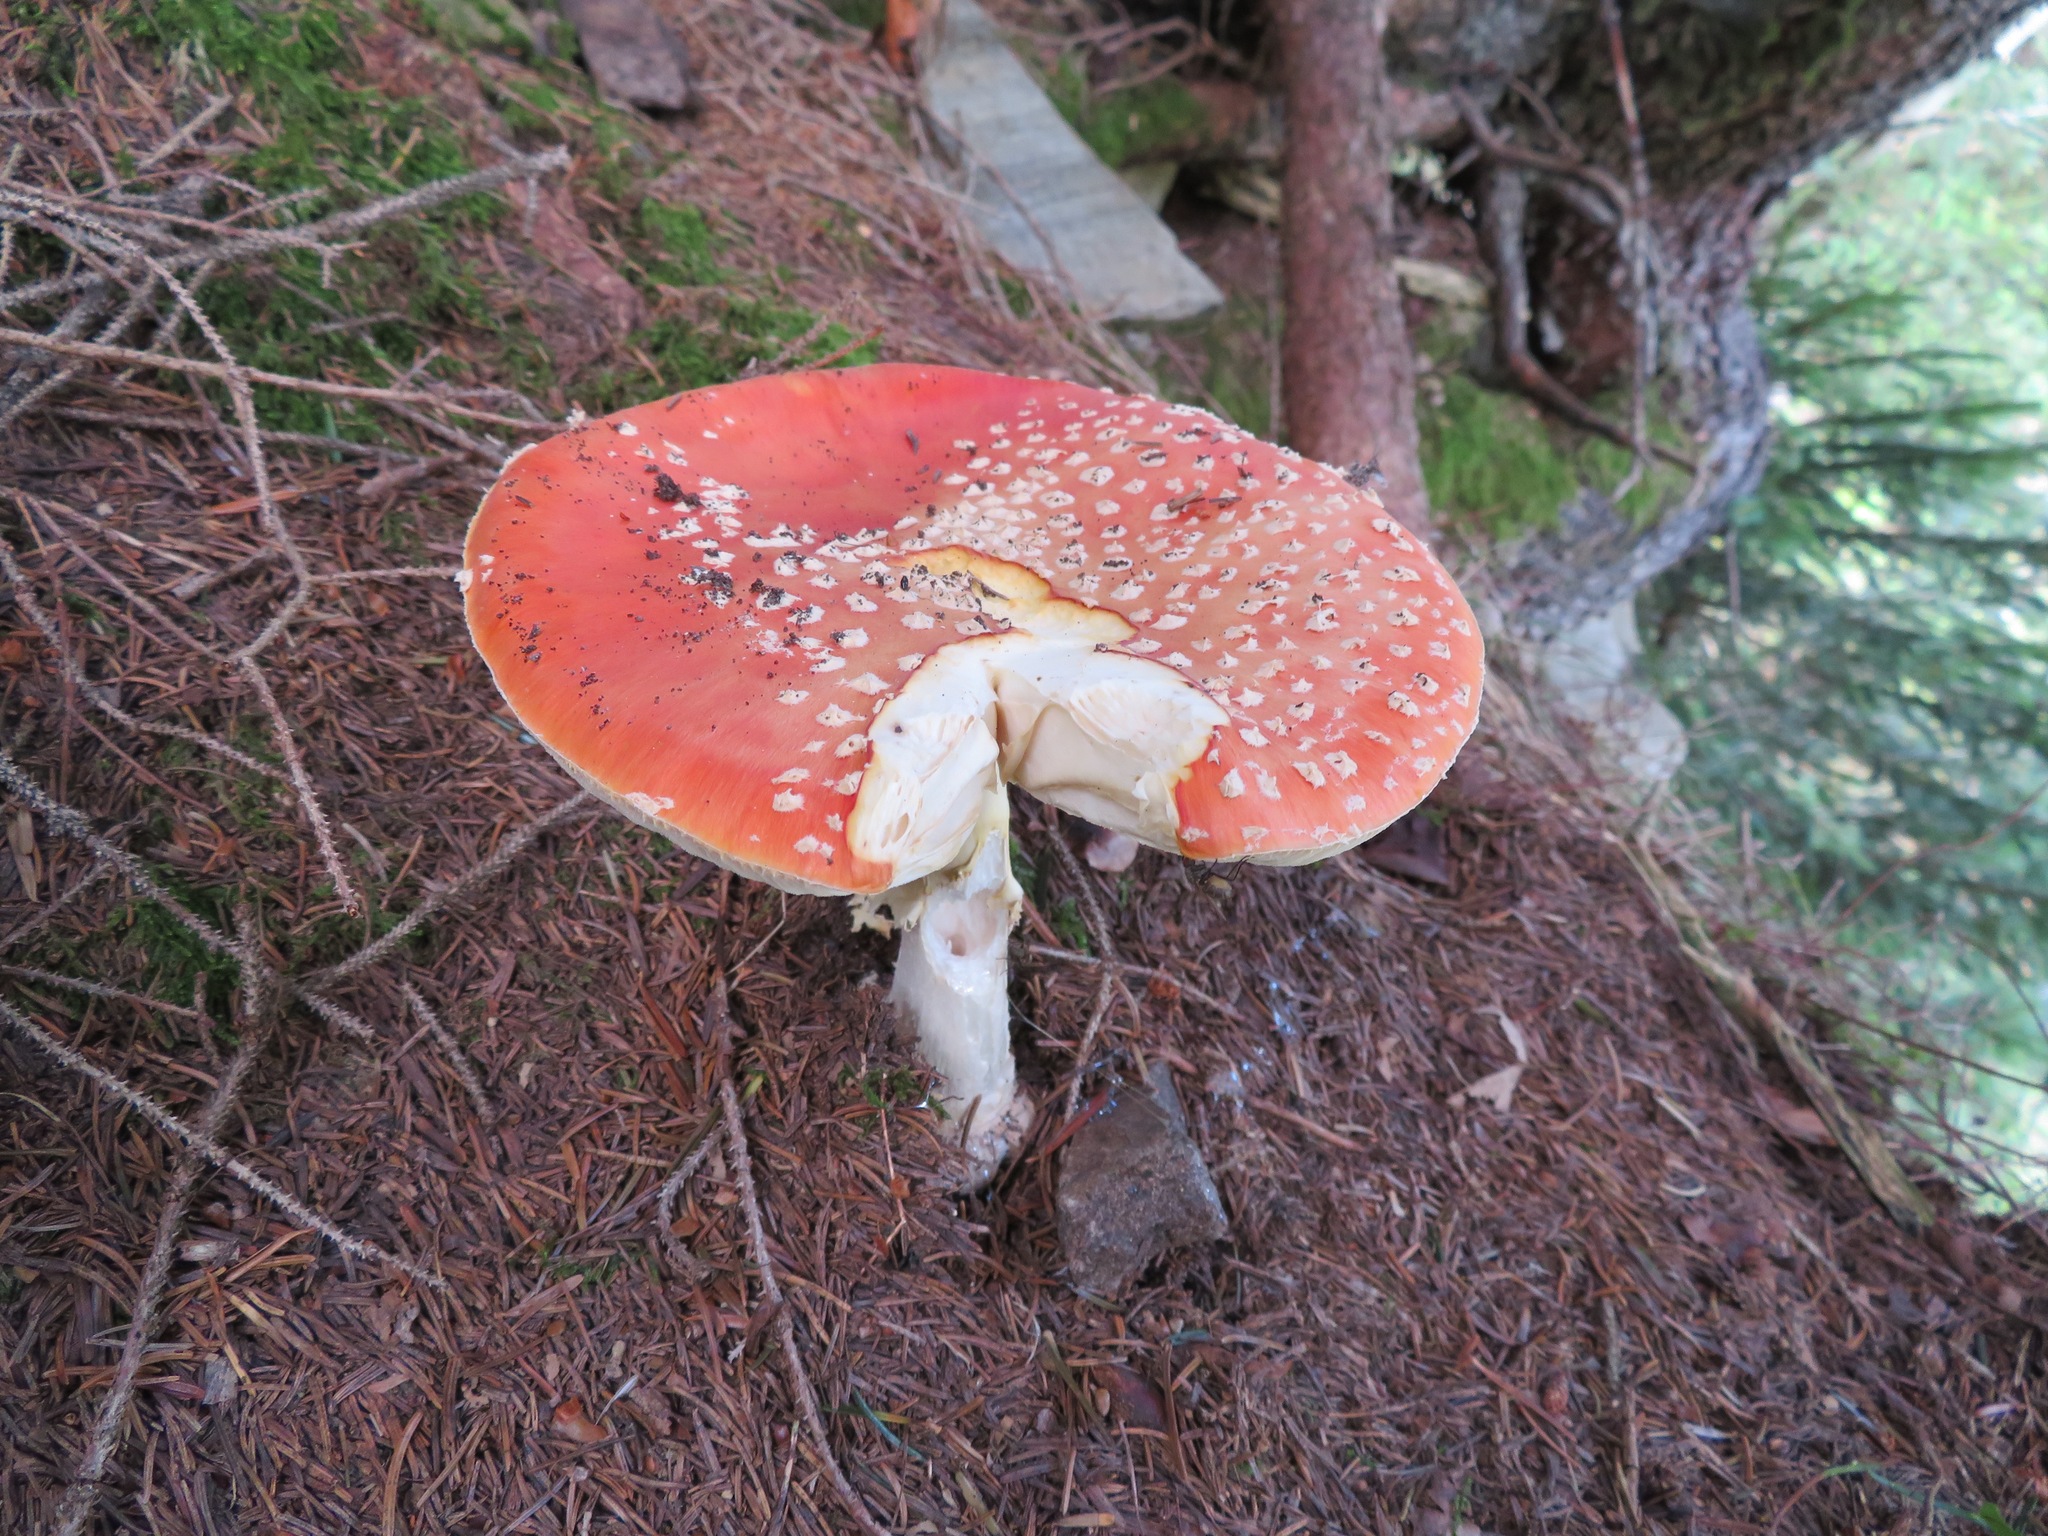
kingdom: Fungi
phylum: Basidiomycota
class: Agaricomycetes
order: Agaricales
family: Amanitaceae
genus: Amanita
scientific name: Amanita muscaria
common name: Fly agaric
